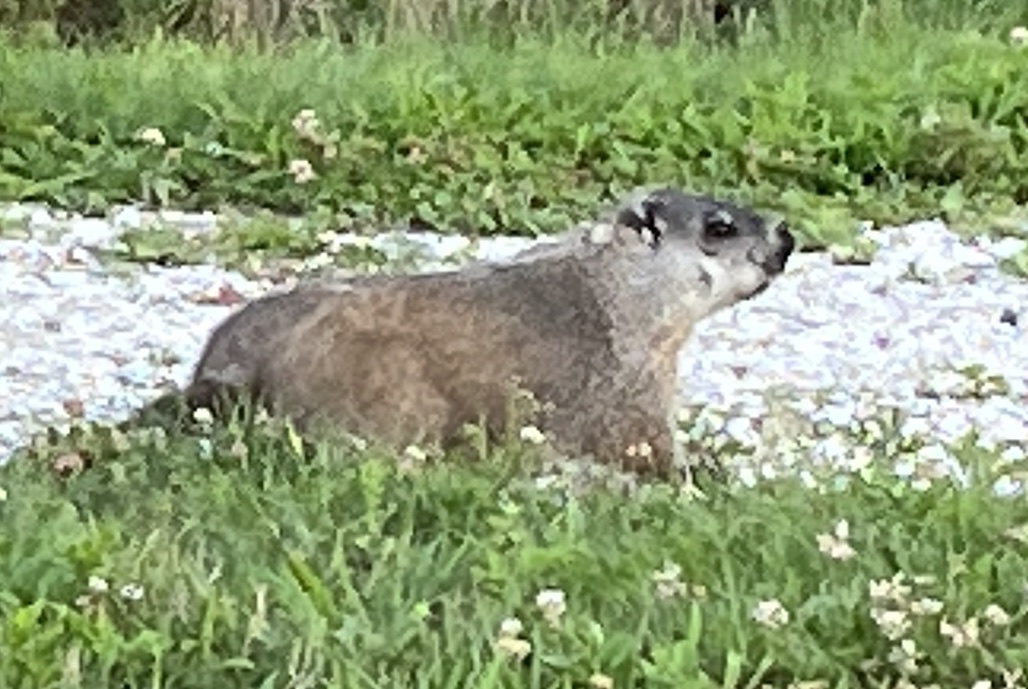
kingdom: Animalia
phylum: Chordata
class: Mammalia
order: Rodentia
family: Sciuridae
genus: Marmota
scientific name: Marmota monax
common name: Groundhog
